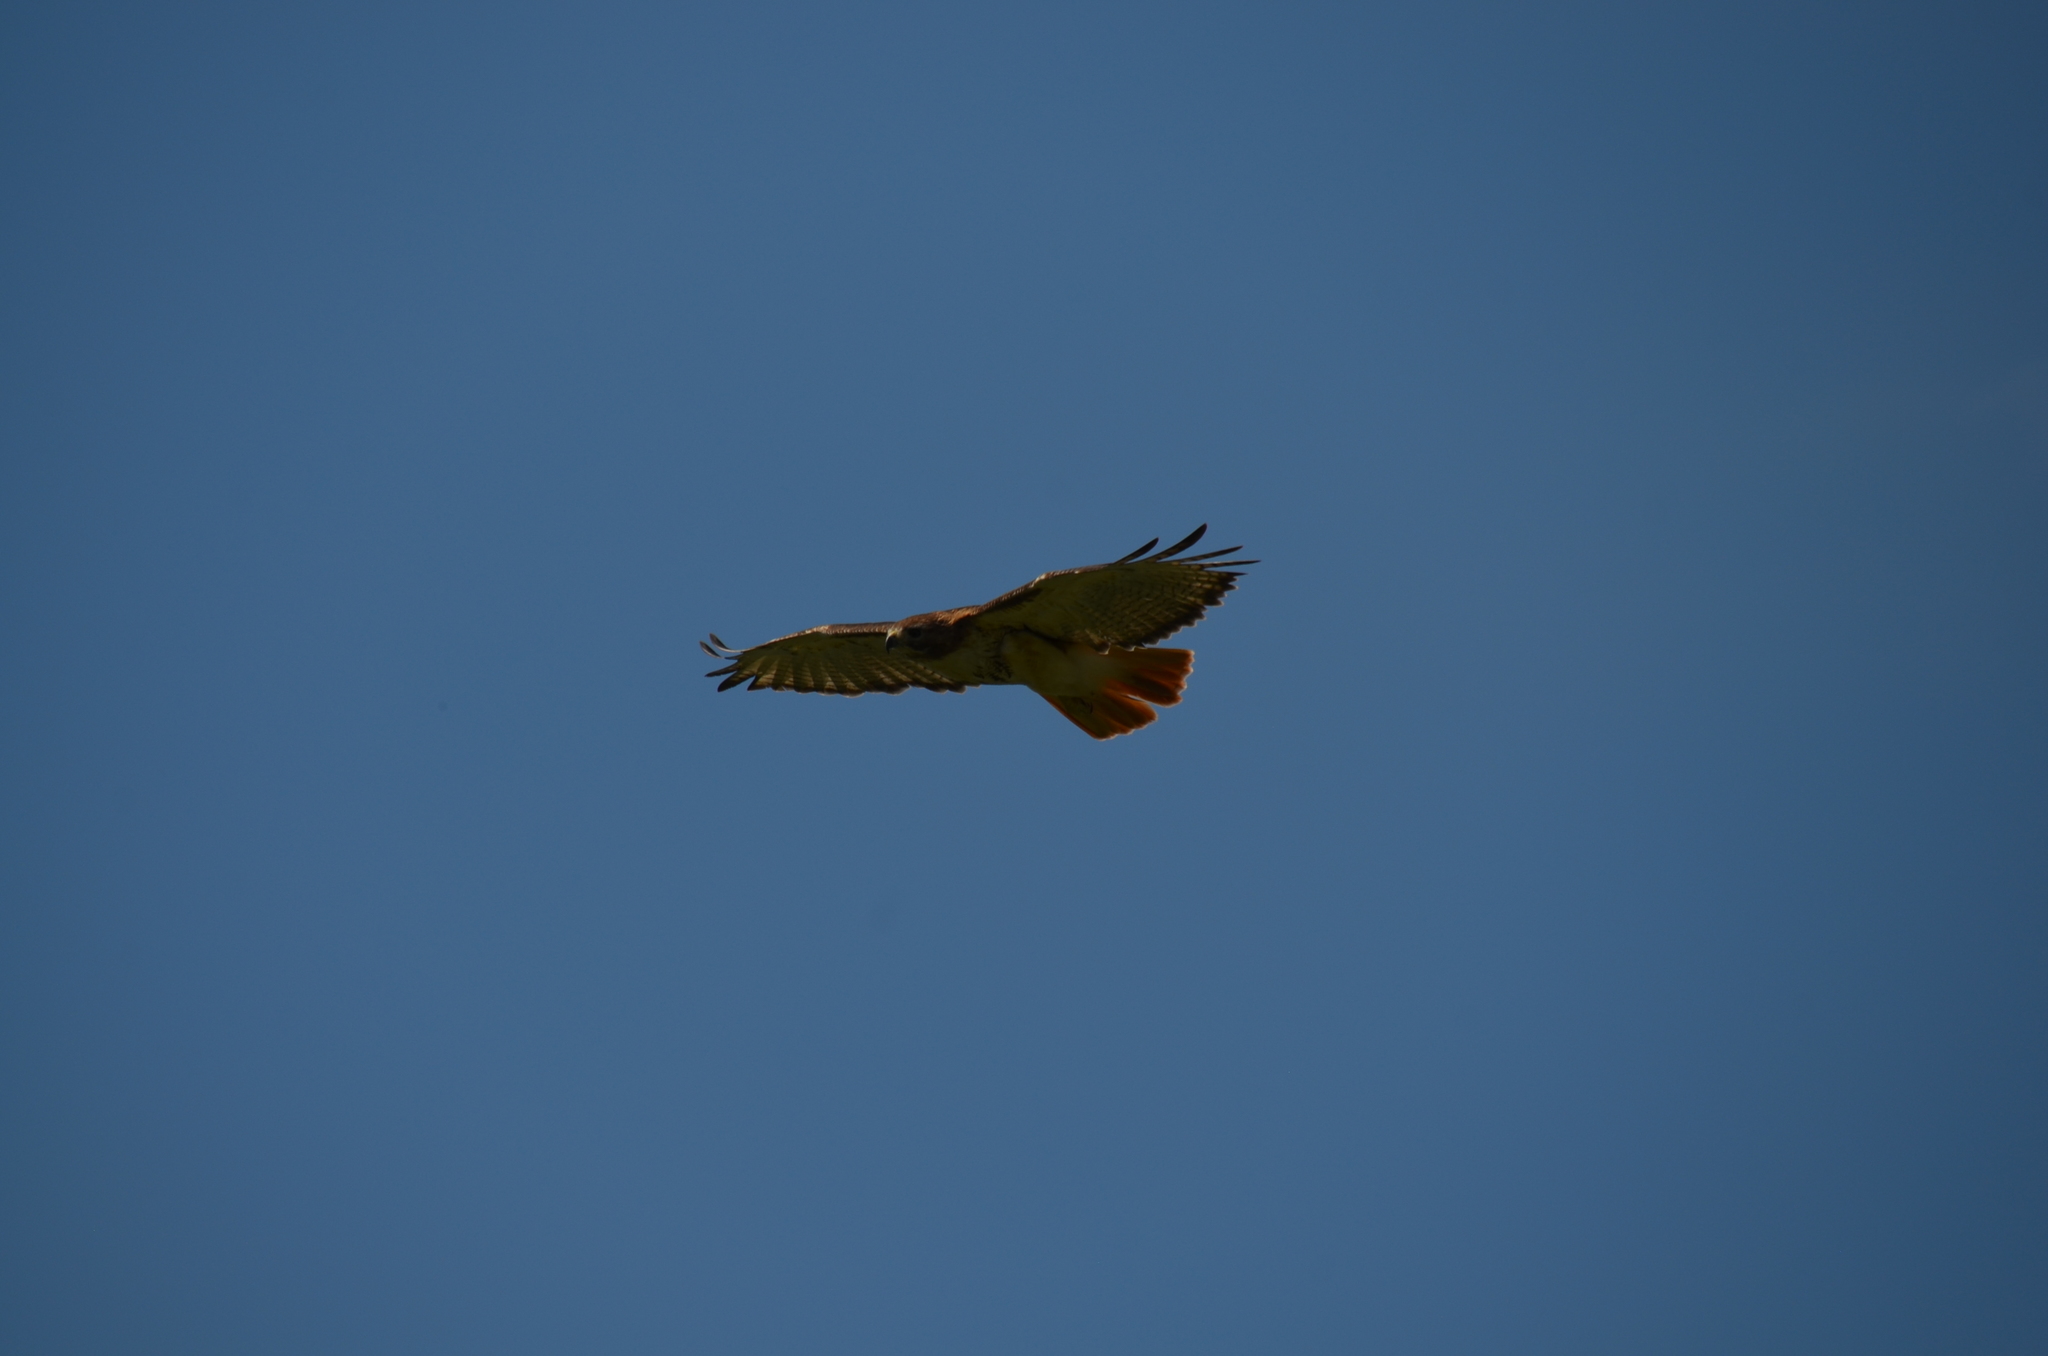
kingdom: Animalia
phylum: Chordata
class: Aves
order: Accipitriformes
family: Accipitridae
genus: Buteo
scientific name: Buteo jamaicensis
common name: Red-tailed hawk
